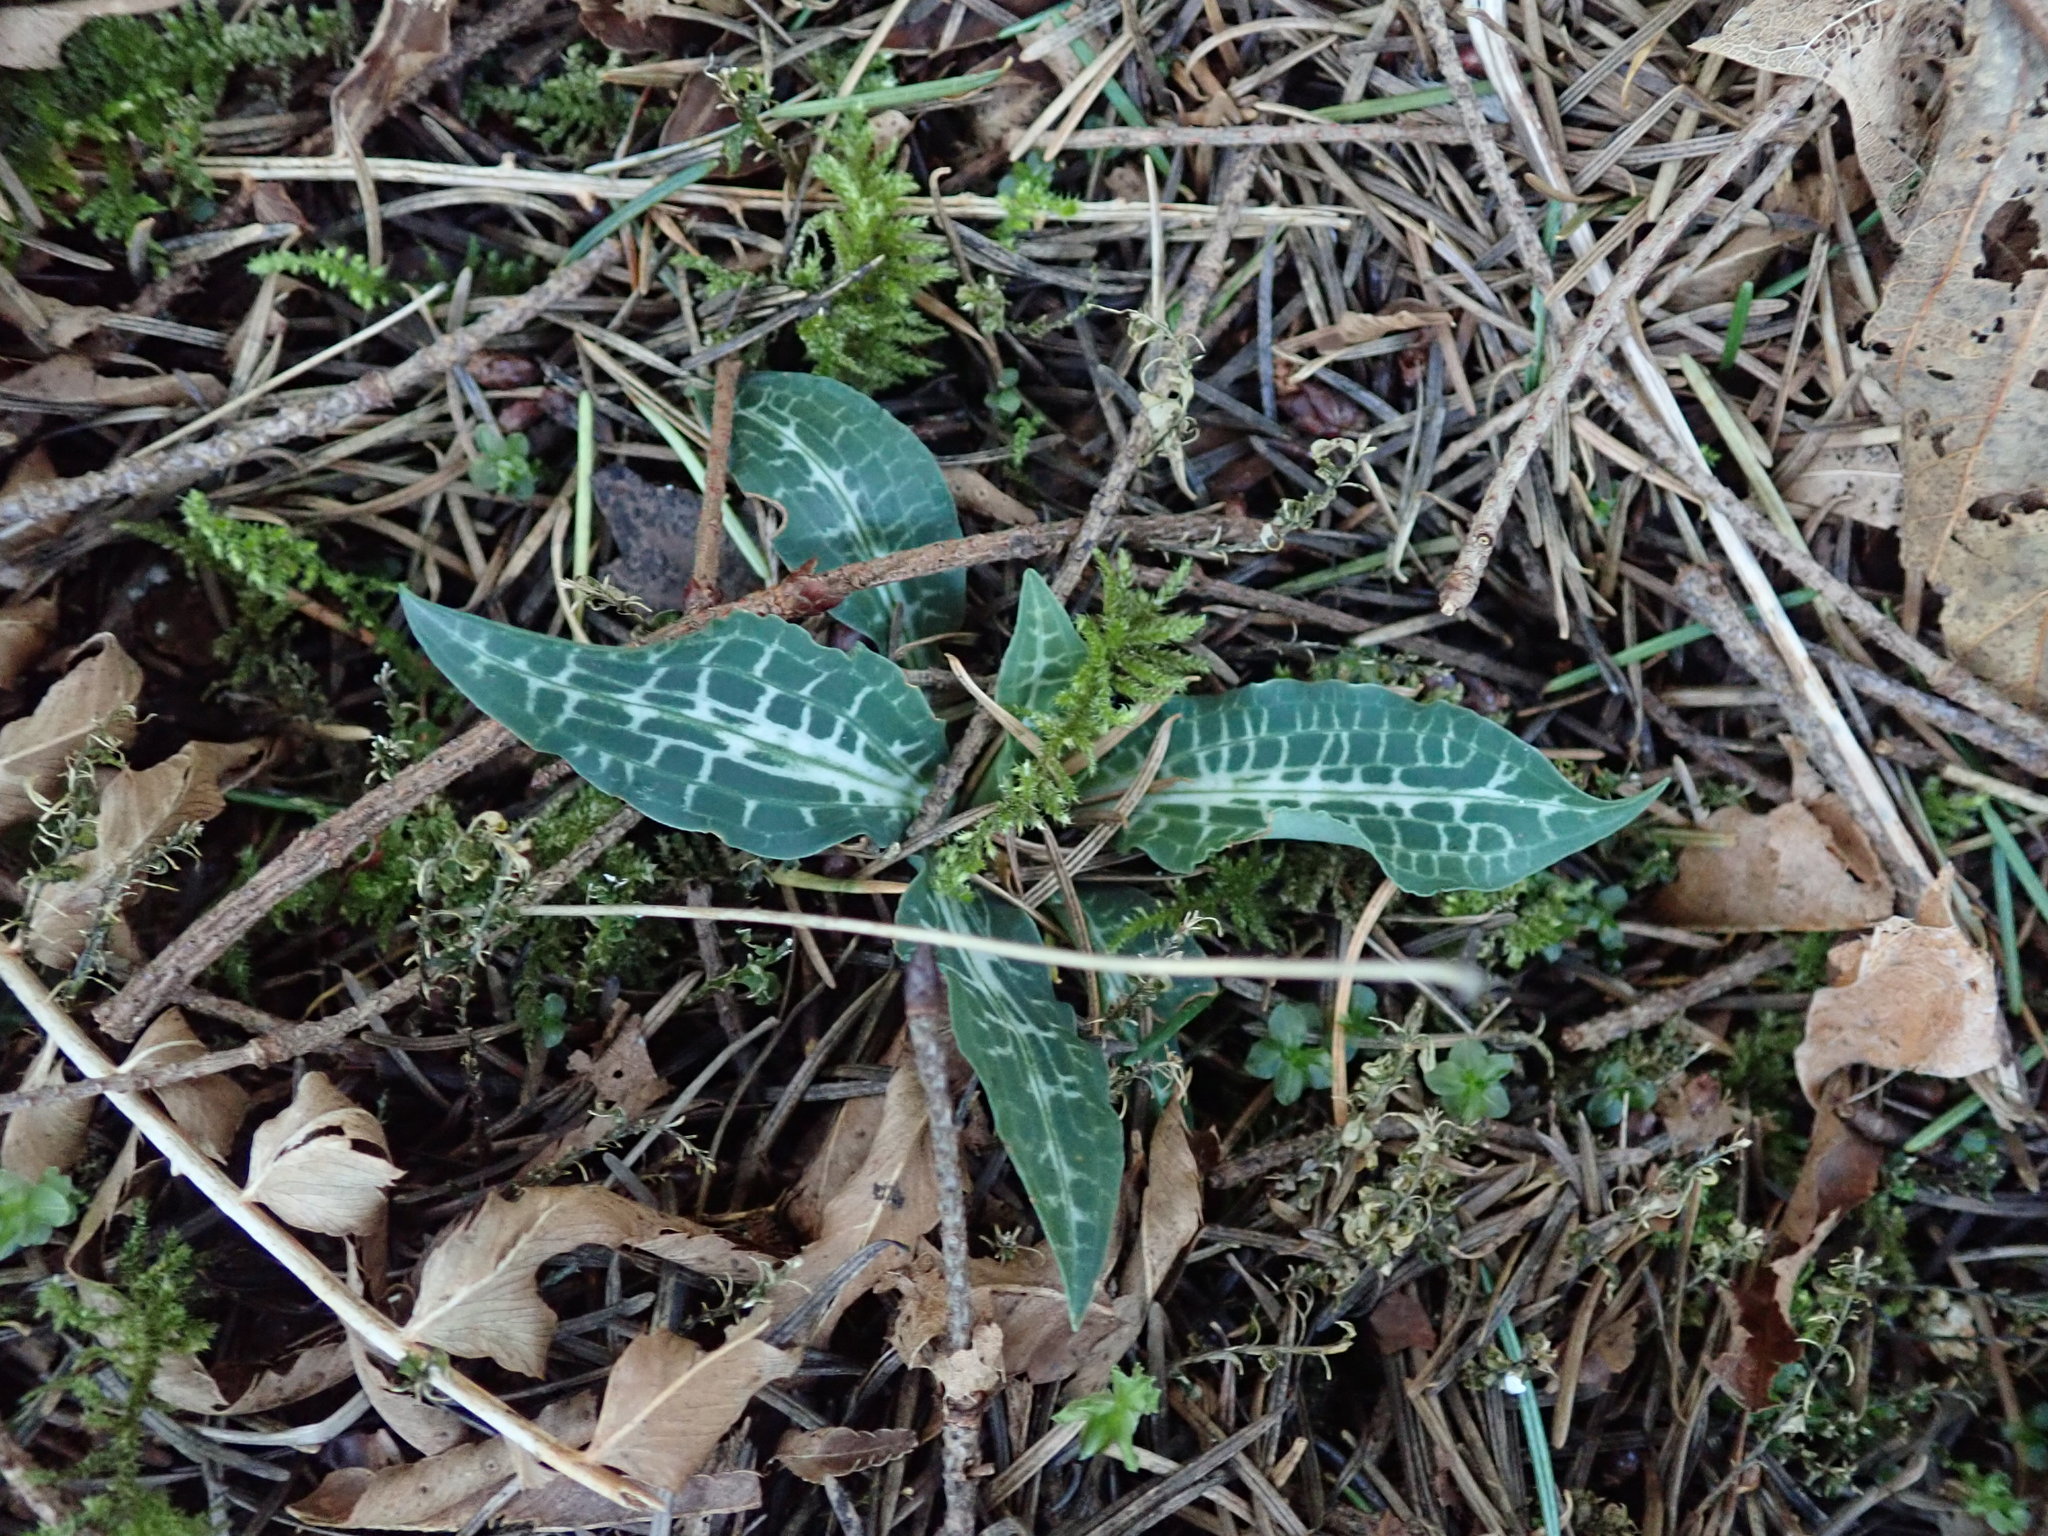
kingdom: Plantae
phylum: Tracheophyta
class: Liliopsida
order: Asparagales
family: Orchidaceae
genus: Goodyera
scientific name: Goodyera oblongifolia
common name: Giant rattlesnake-plantain
